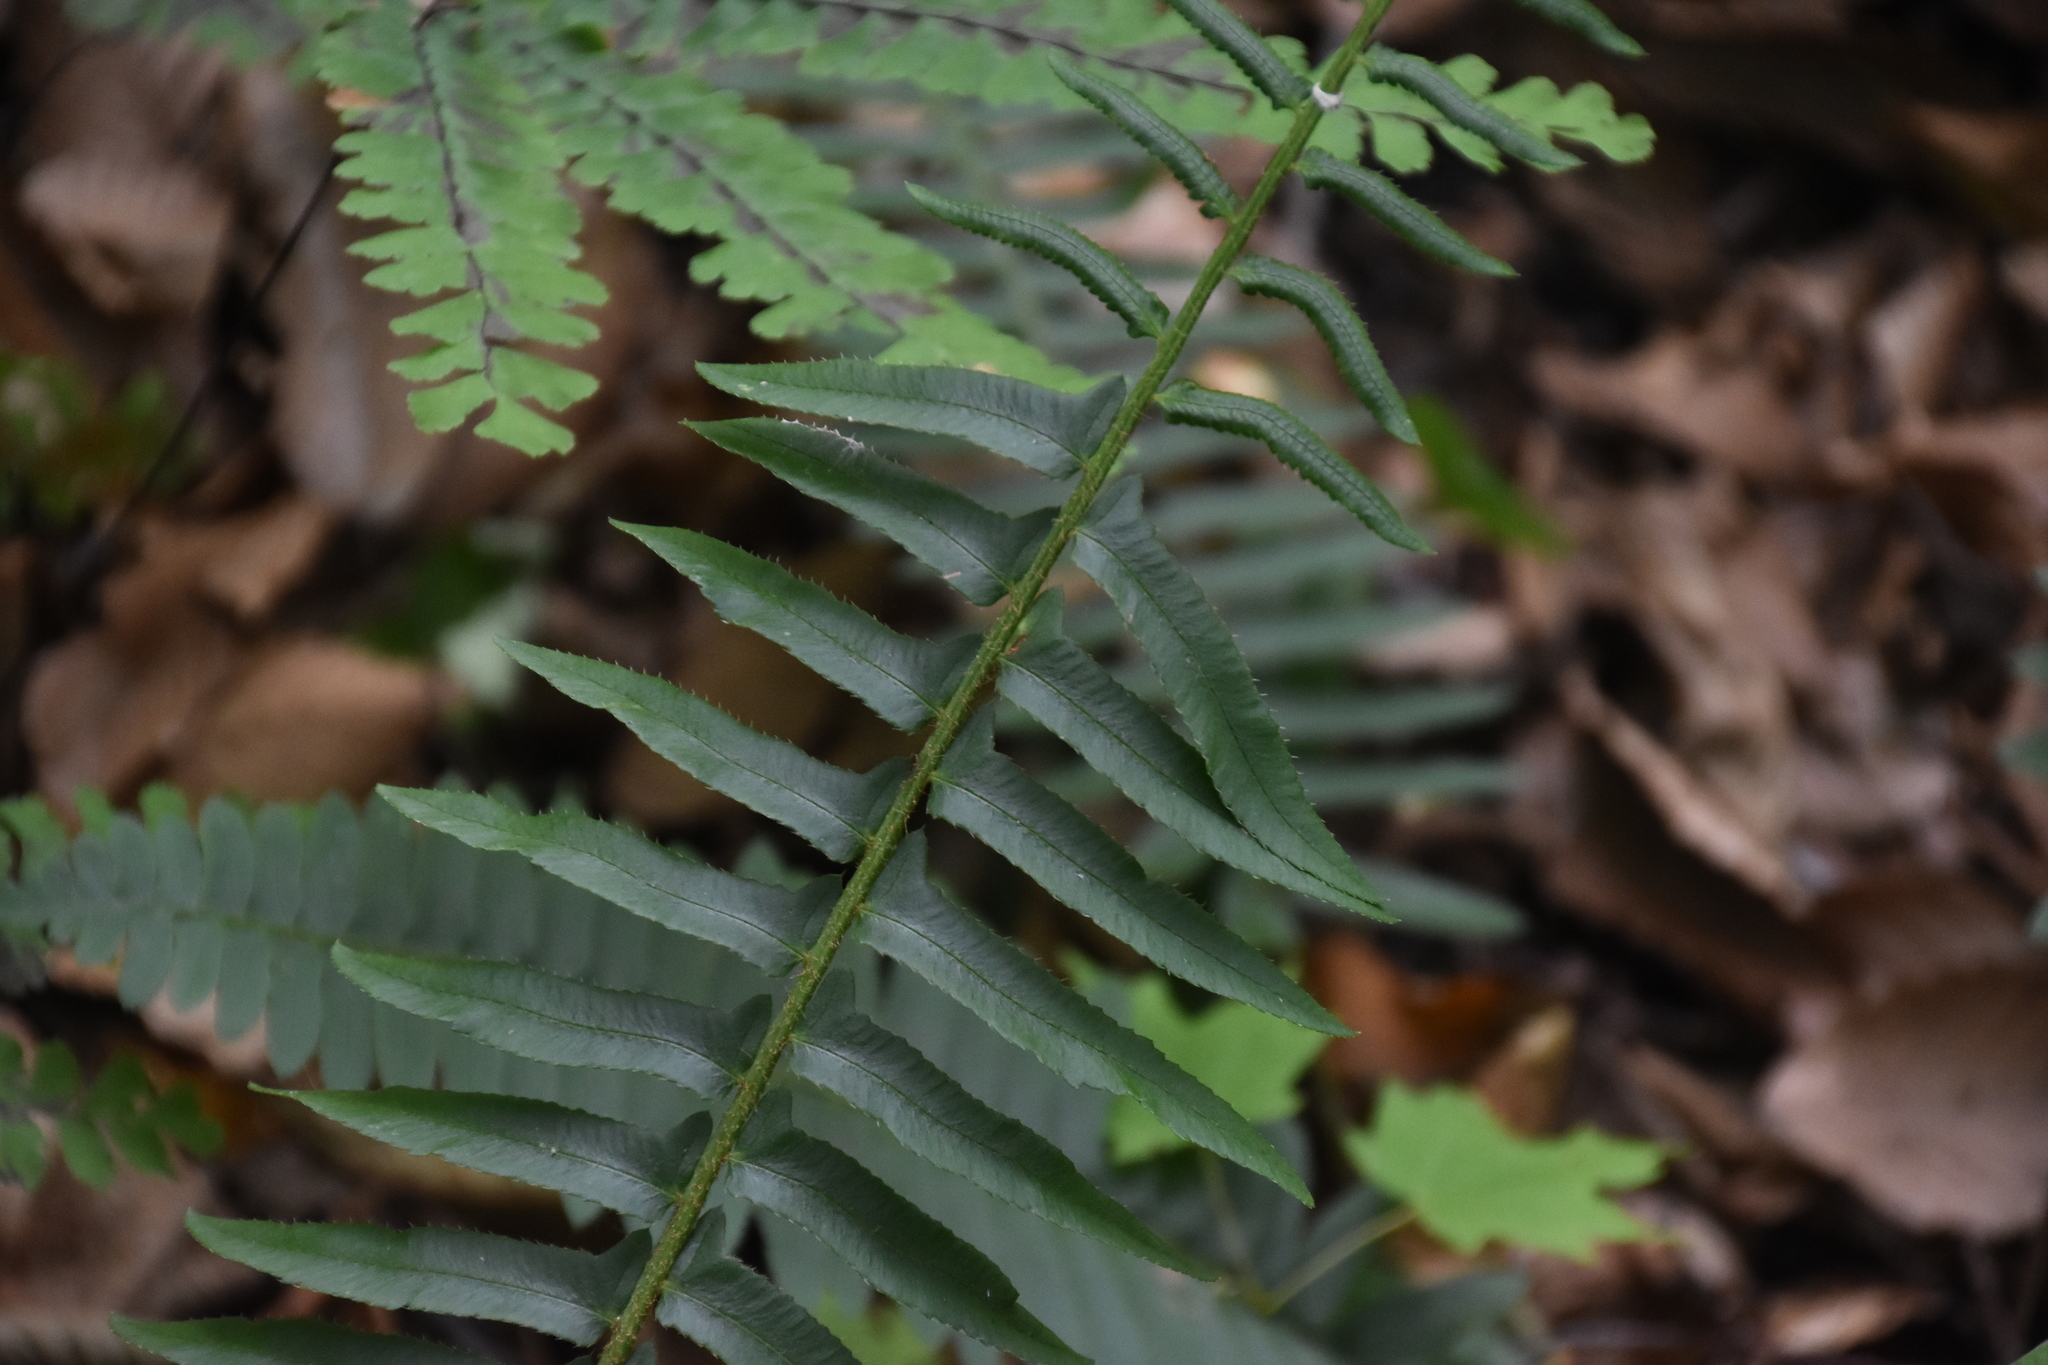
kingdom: Plantae
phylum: Tracheophyta
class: Polypodiopsida
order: Polypodiales
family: Dryopteridaceae
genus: Polystichum
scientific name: Polystichum acrostichoides
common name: Christmas fern
